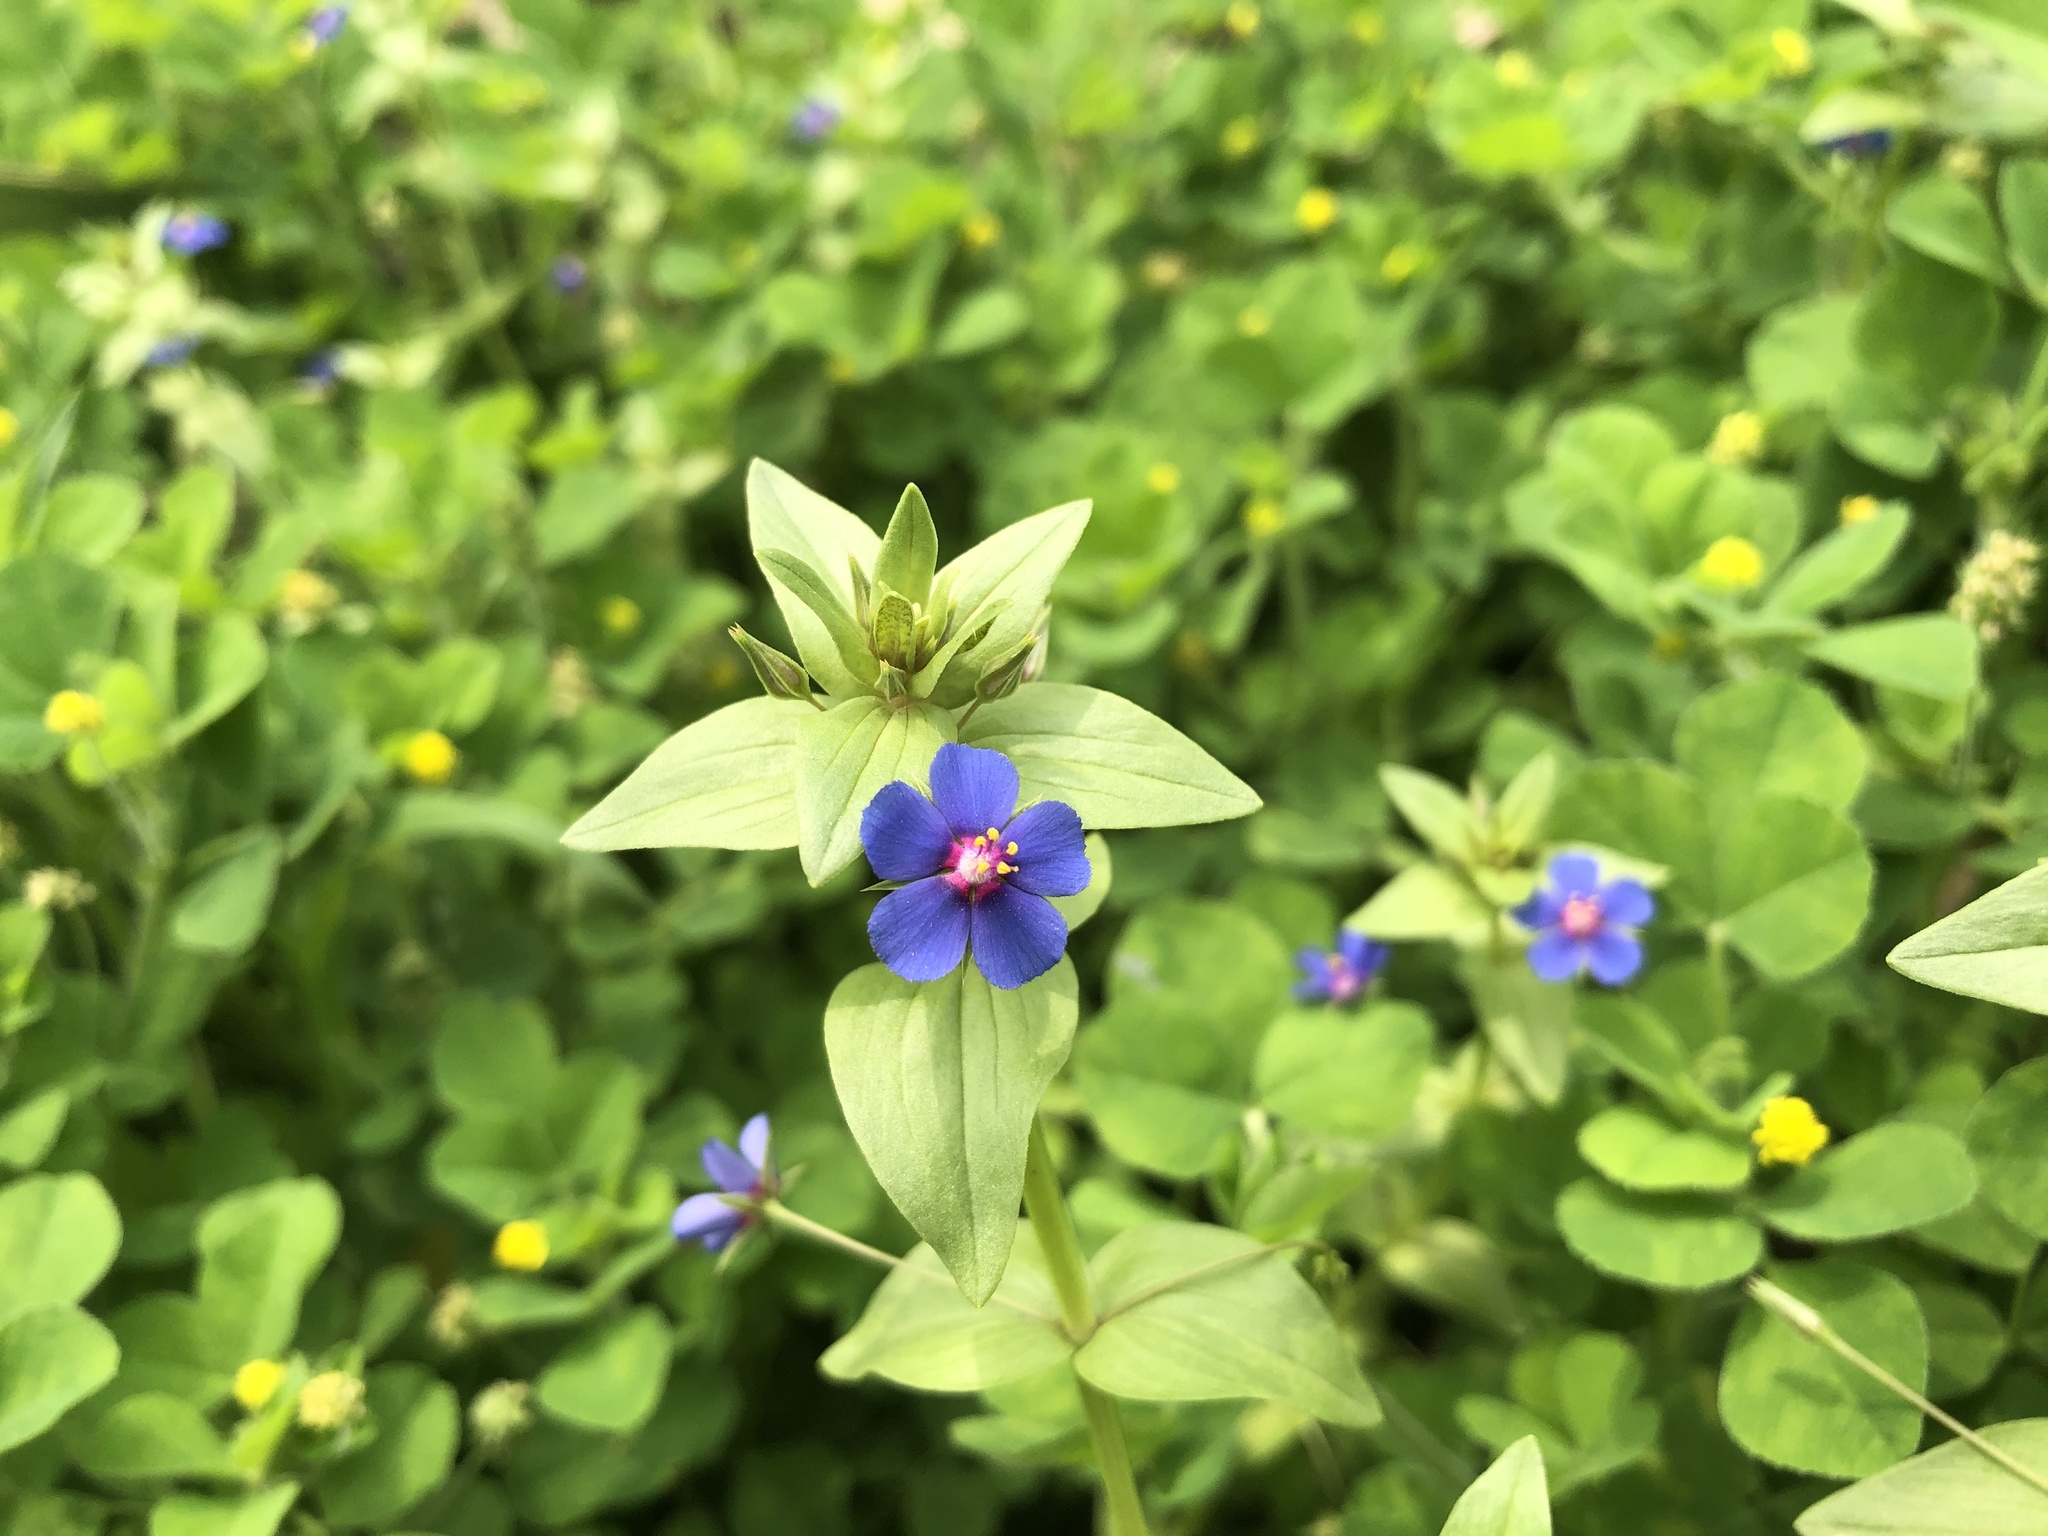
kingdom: Plantae
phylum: Tracheophyta
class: Magnoliopsida
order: Ericales
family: Primulaceae
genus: Lysimachia
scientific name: Lysimachia loeflingii
